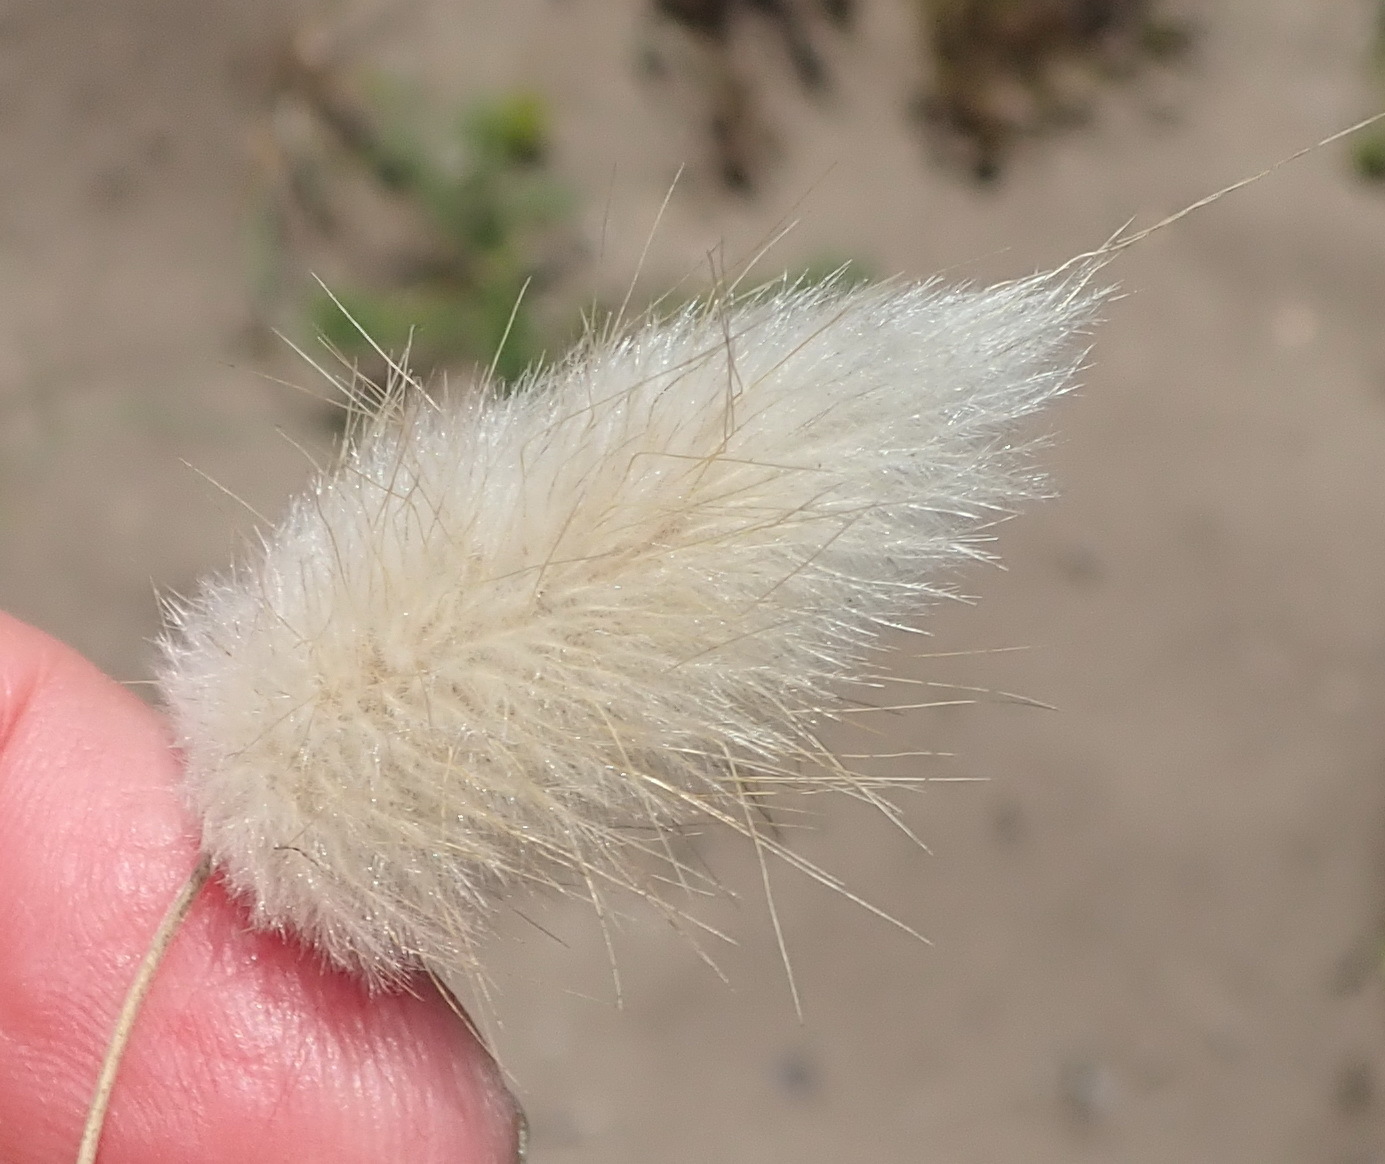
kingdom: Plantae
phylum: Tracheophyta
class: Liliopsida
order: Poales
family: Poaceae
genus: Lagurus
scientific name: Lagurus ovatus
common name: Hare's-tail
